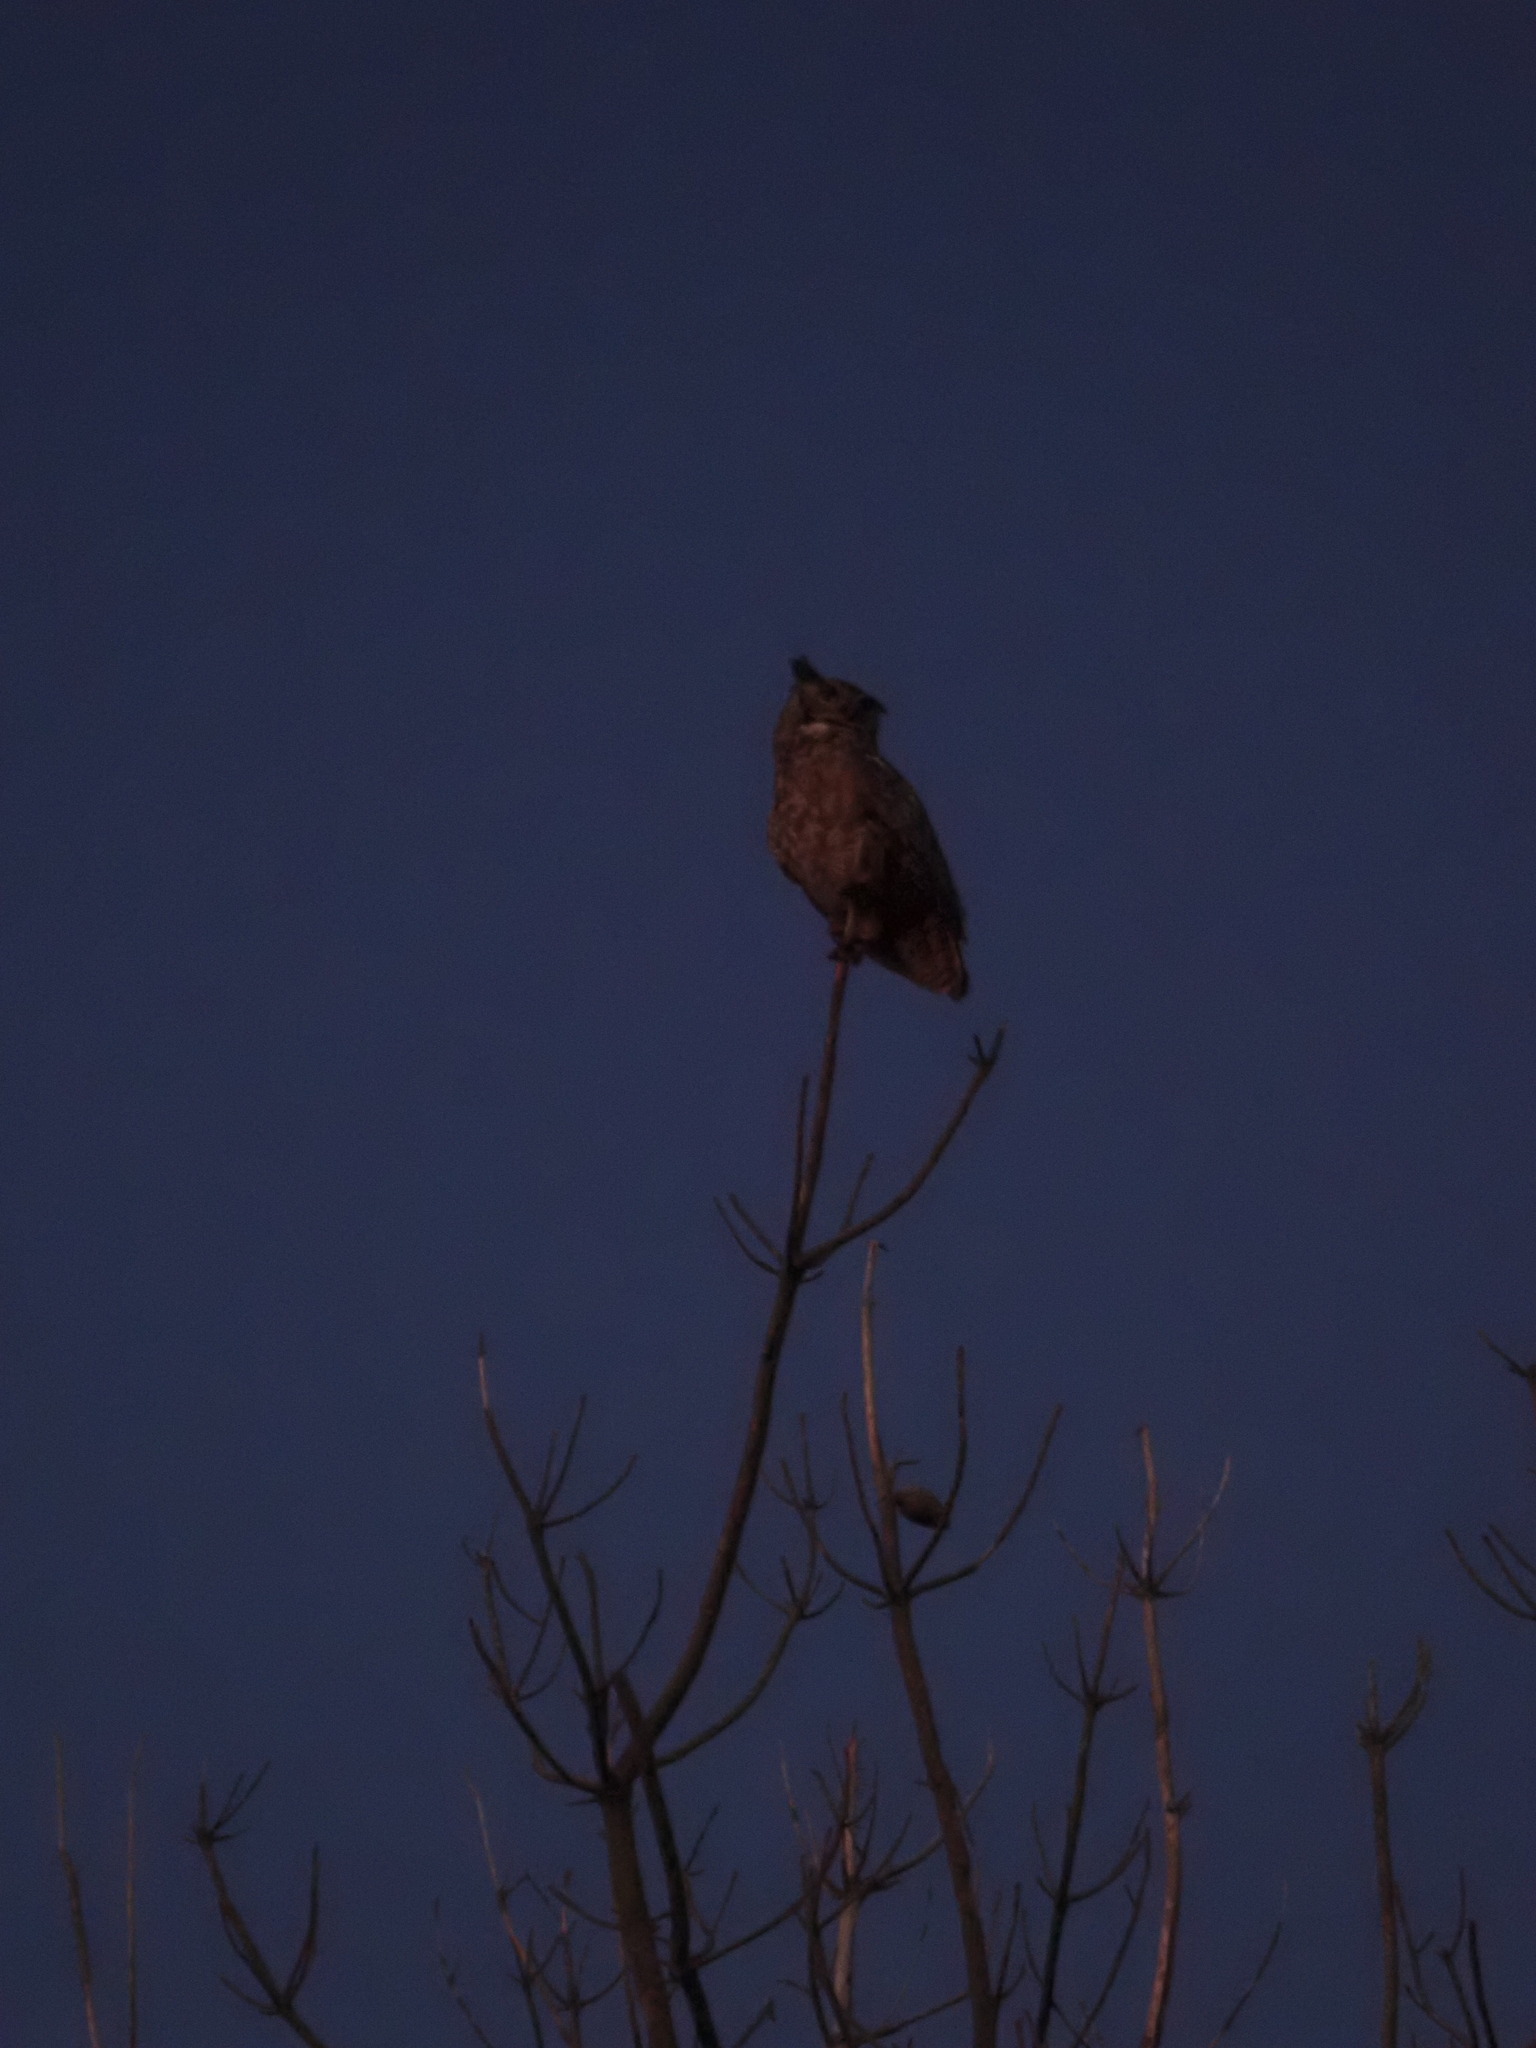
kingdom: Animalia
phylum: Chordata
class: Aves
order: Strigiformes
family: Strigidae
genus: Bubo
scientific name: Bubo virginianus
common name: Great horned owl
